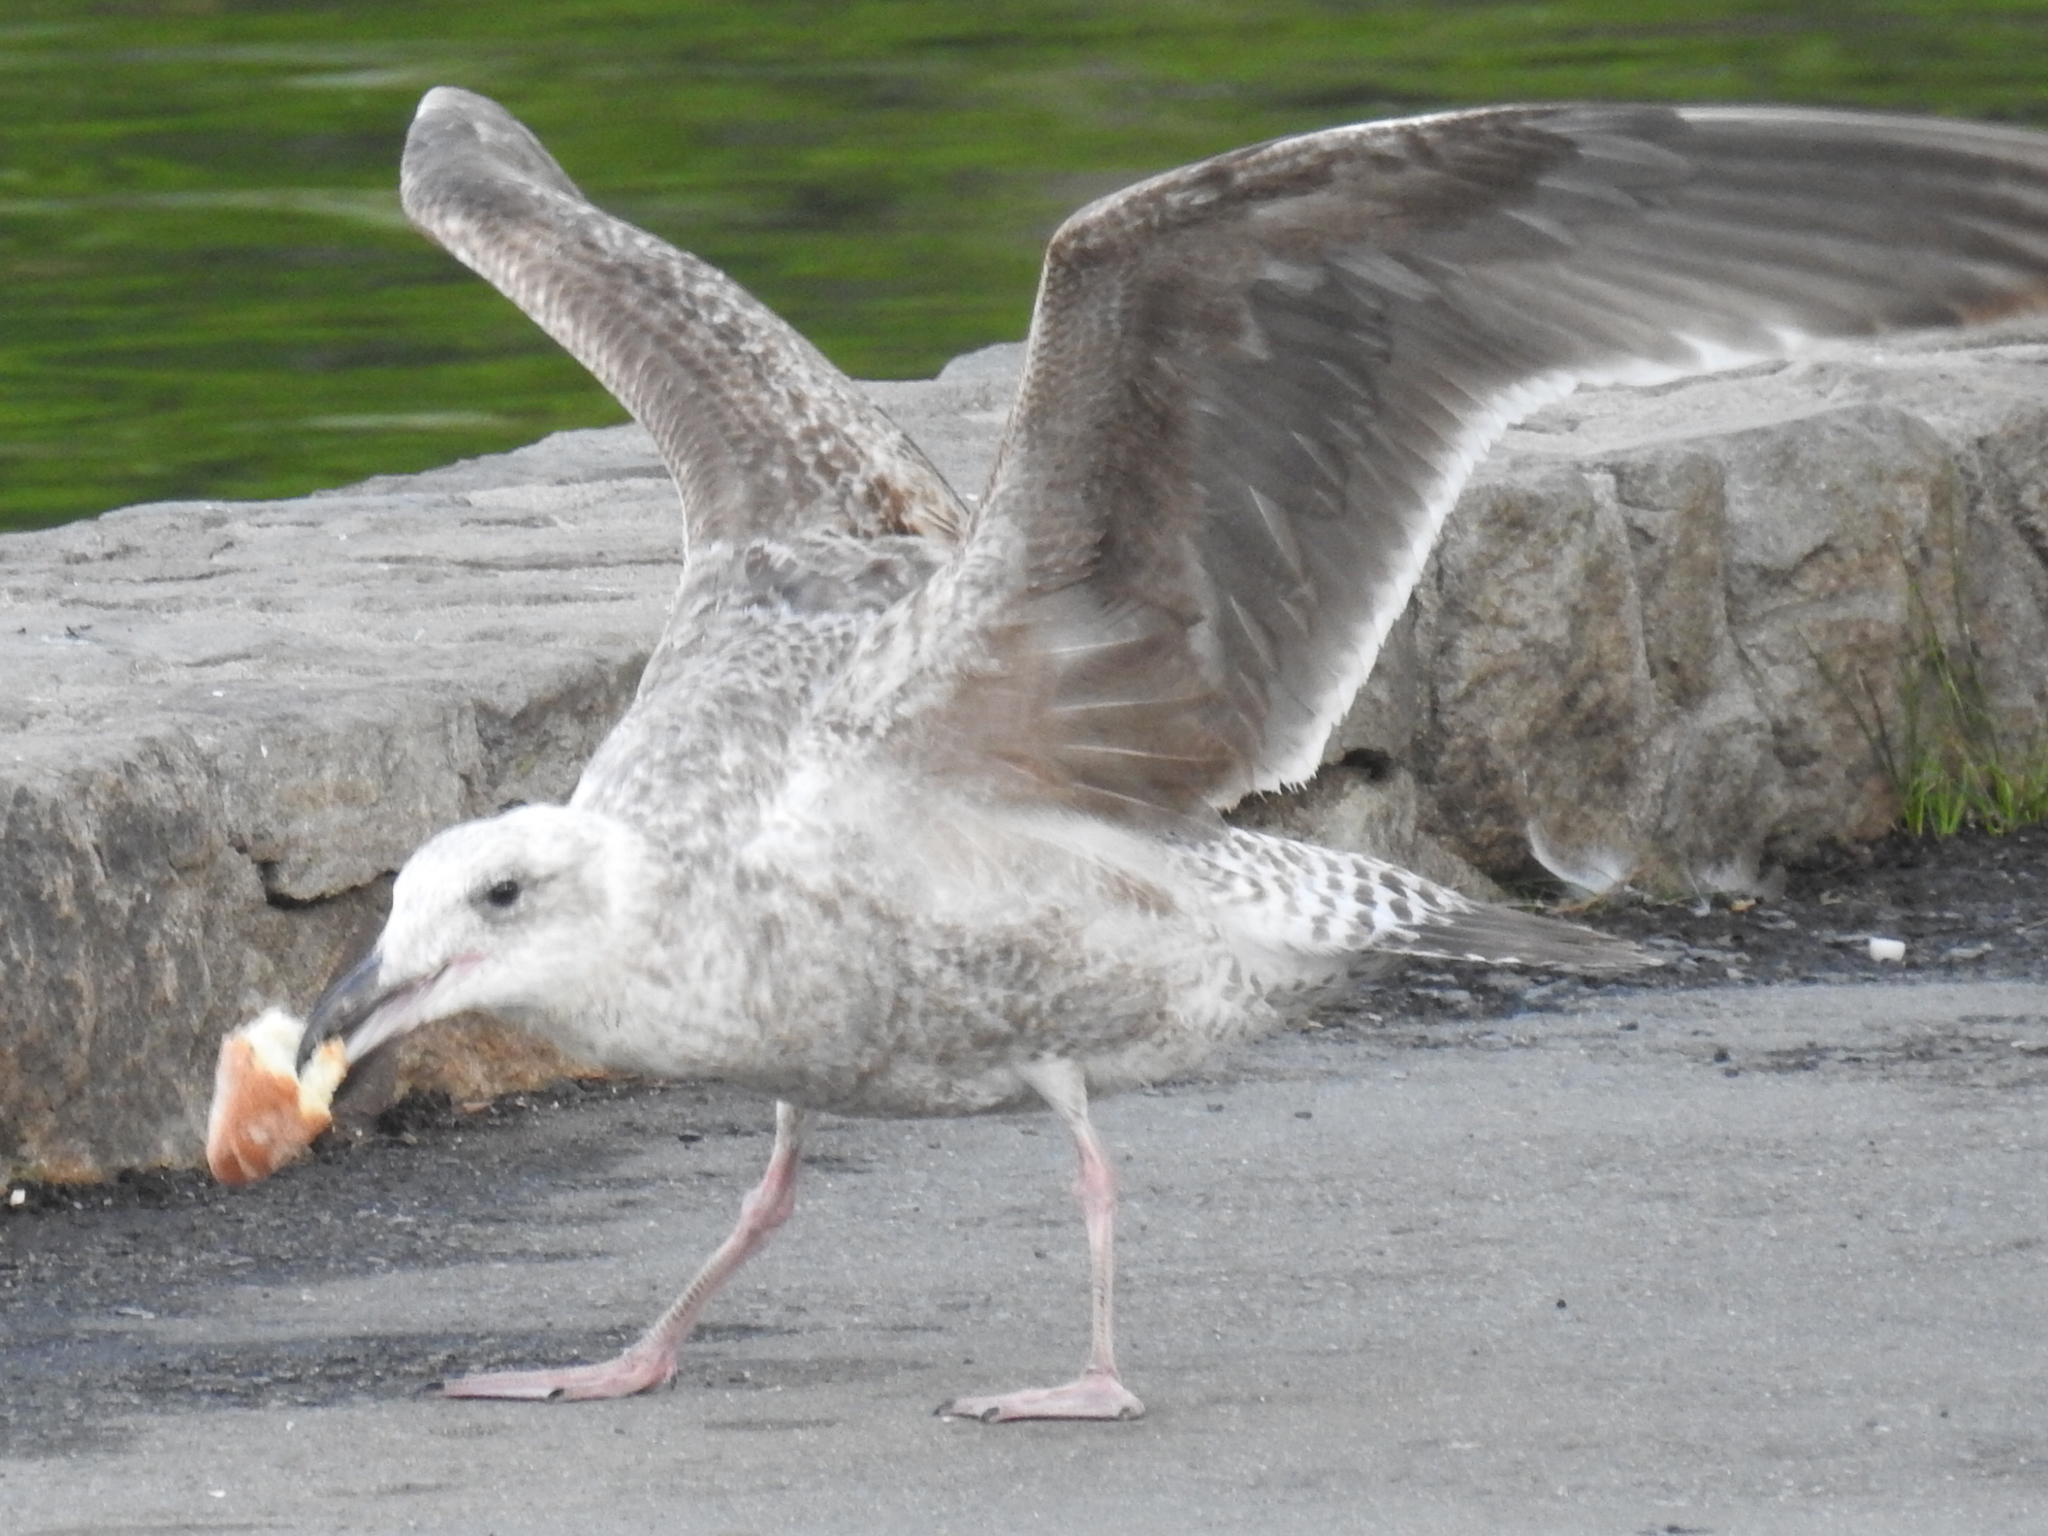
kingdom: Animalia
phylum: Chordata
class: Aves
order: Charadriiformes
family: Laridae
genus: Larus
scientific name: Larus occidentalis
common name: Western gull
